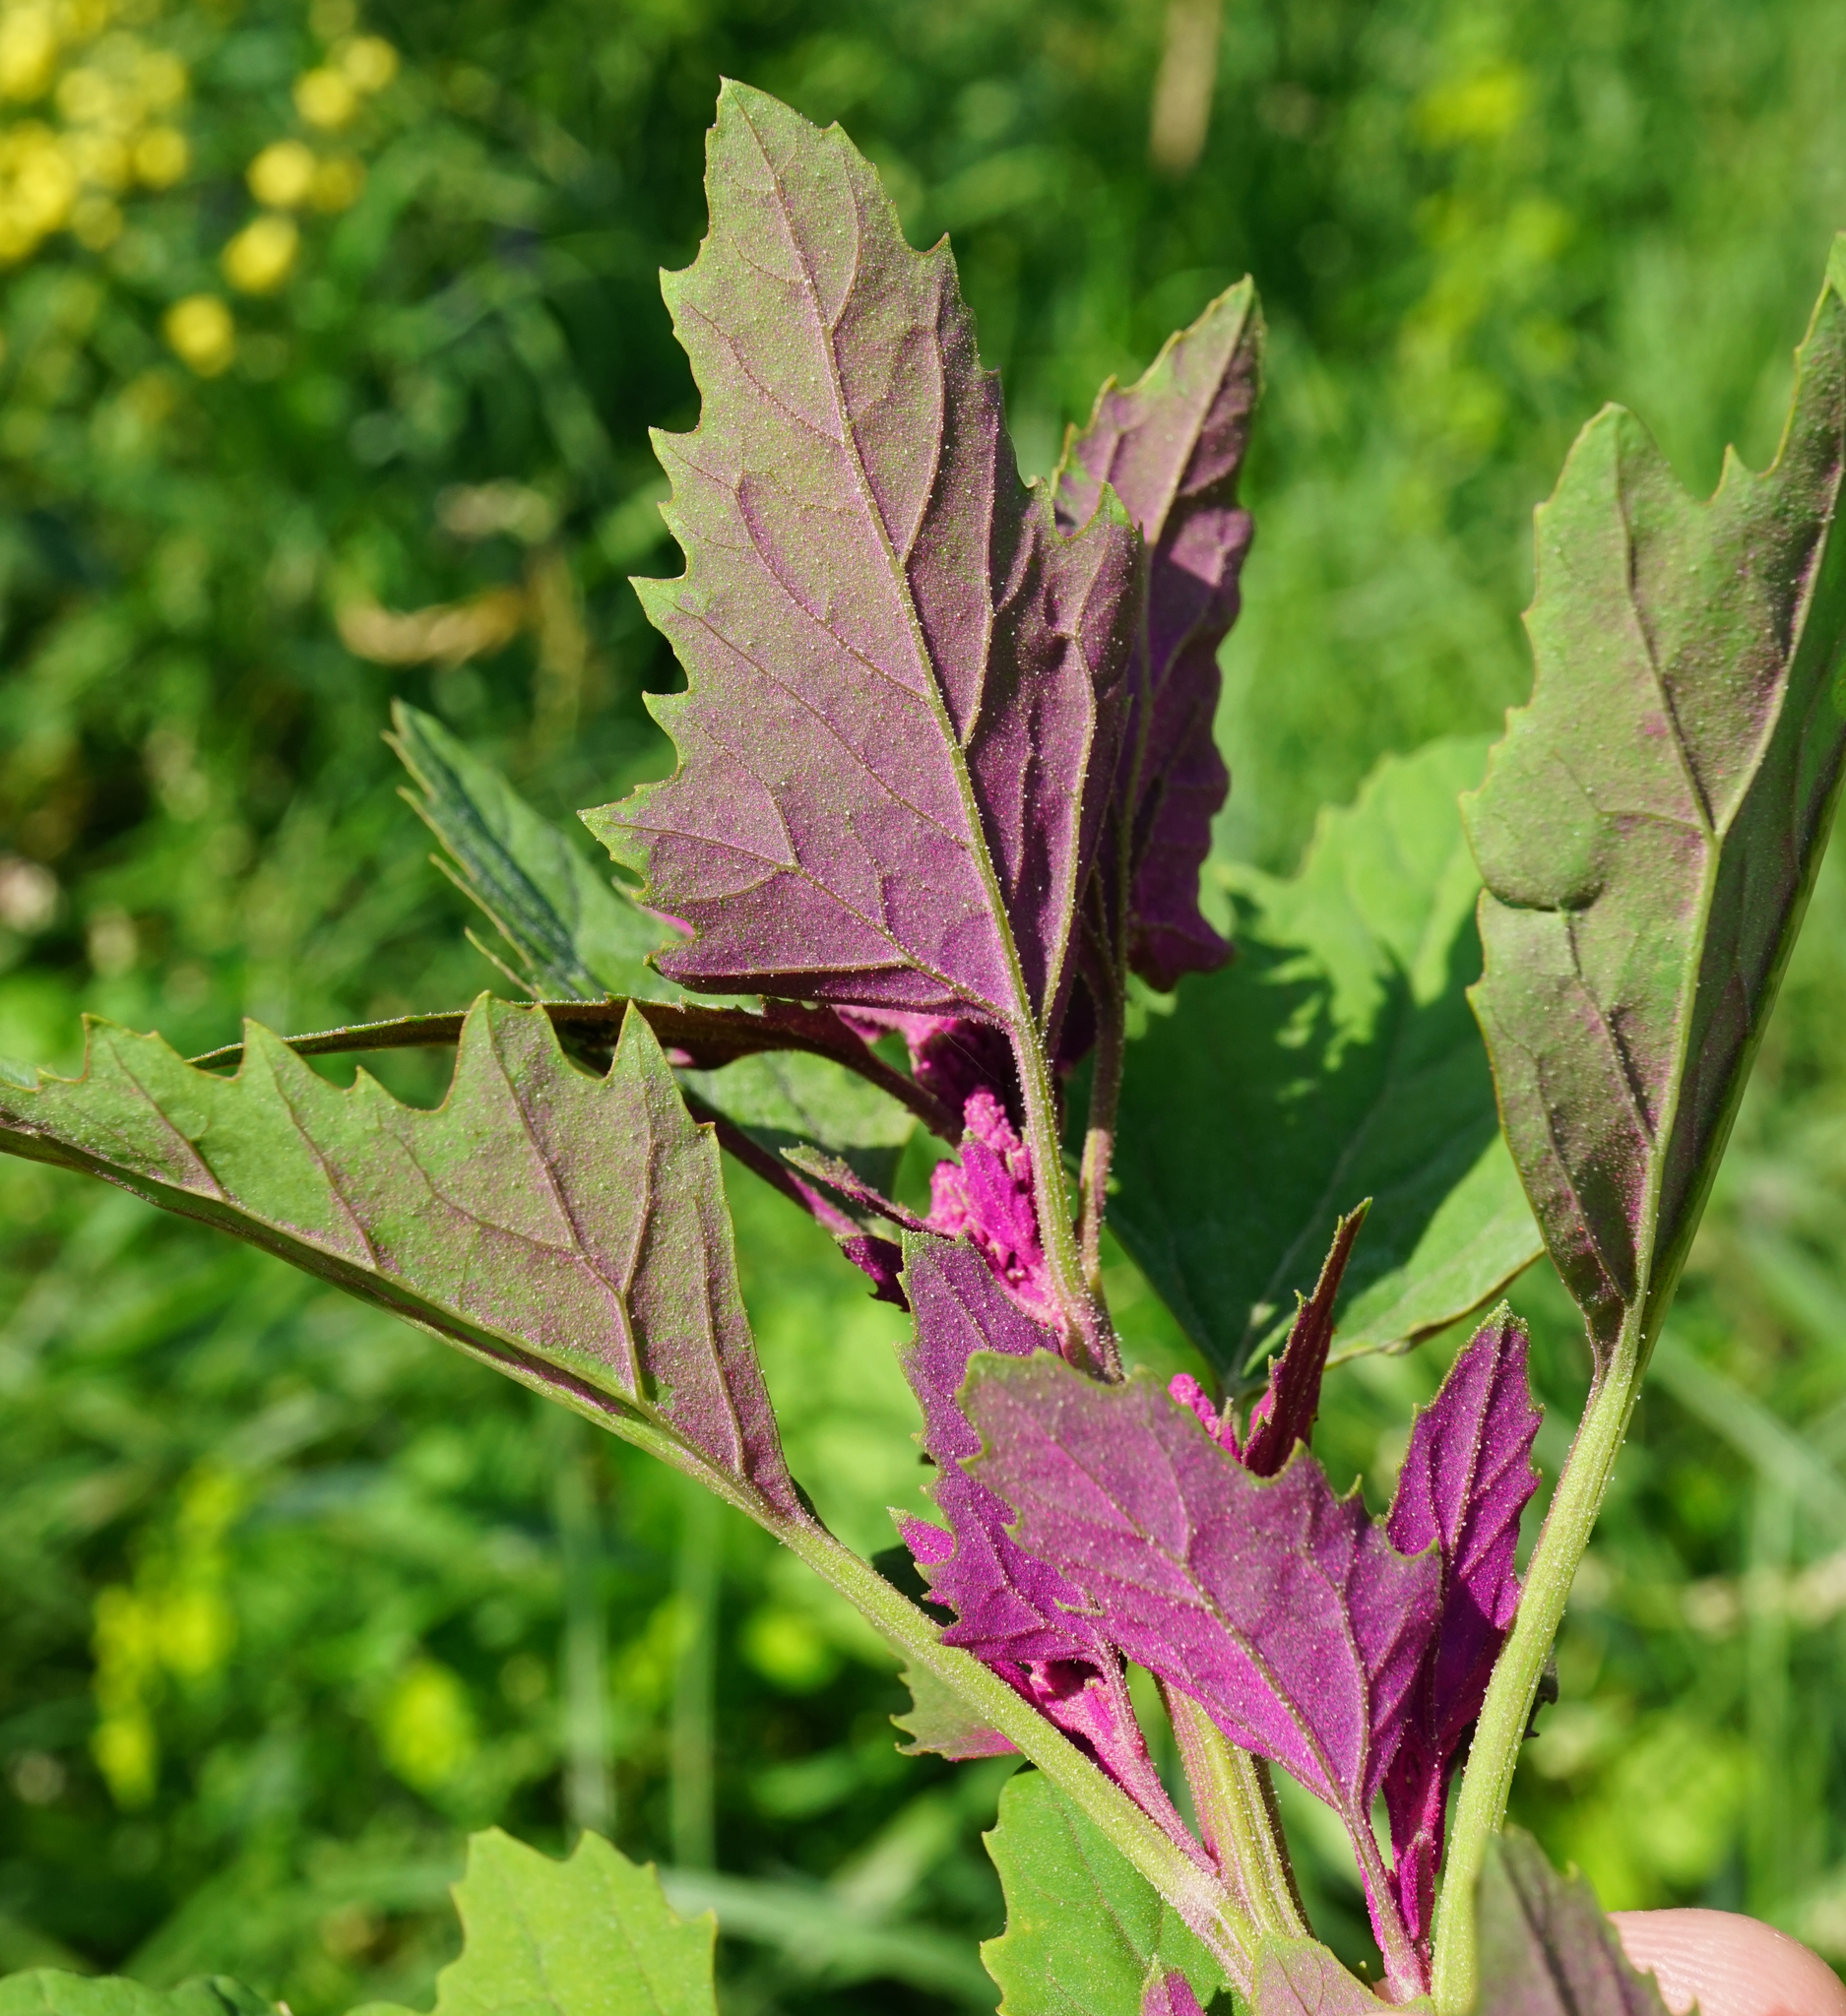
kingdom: Plantae
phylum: Tracheophyta
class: Magnoliopsida
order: Caryophyllales
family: Amaranthaceae
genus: Chenopodium
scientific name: Chenopodium giganteum
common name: Magentaspreen
